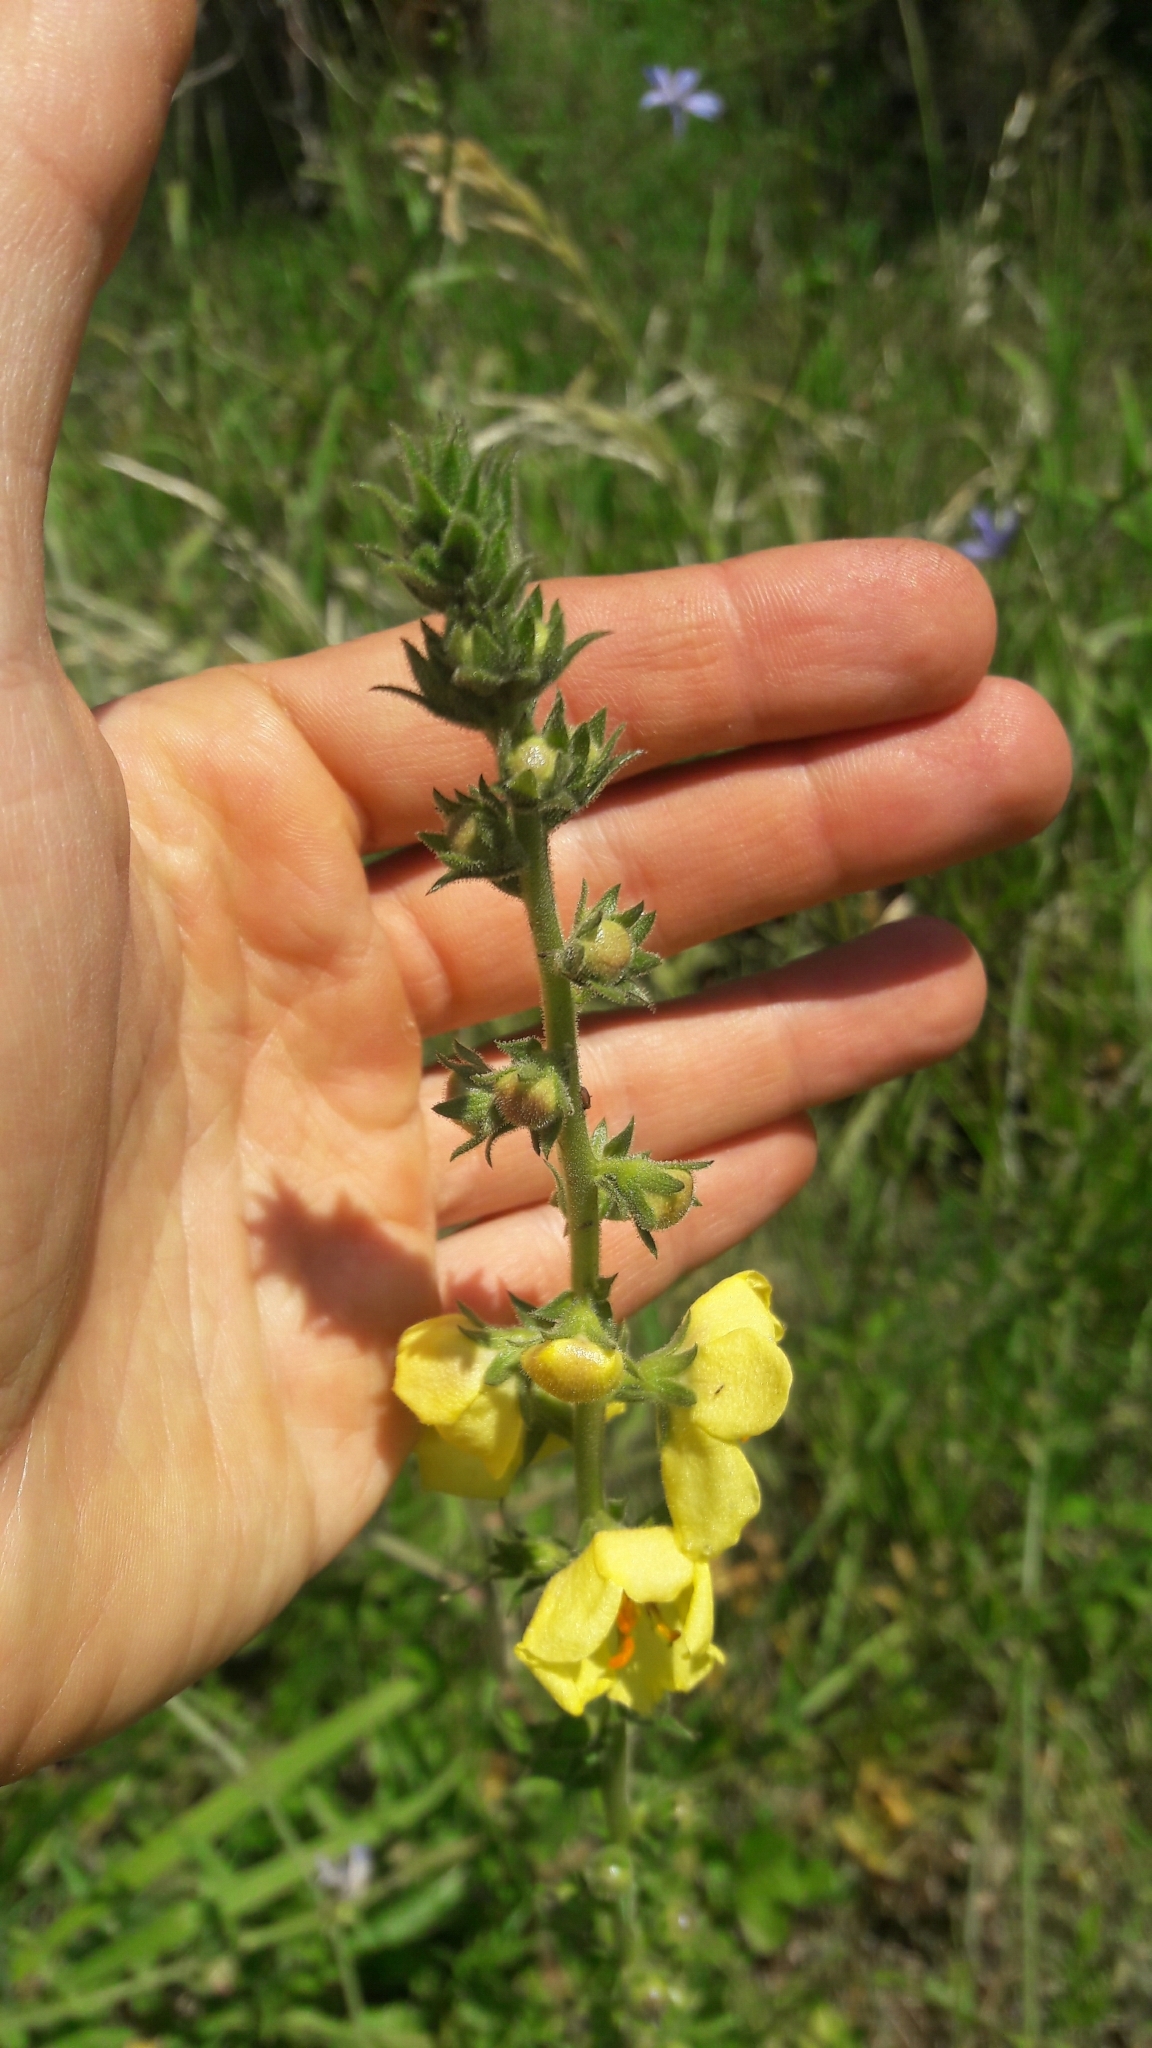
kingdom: Plantae
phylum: Tracheophyta
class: Magnoliopsida
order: Lamiales
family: Scrophulariaceae
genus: Verbascum
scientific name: Verbascum virgatum
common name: Twiggy mullein
